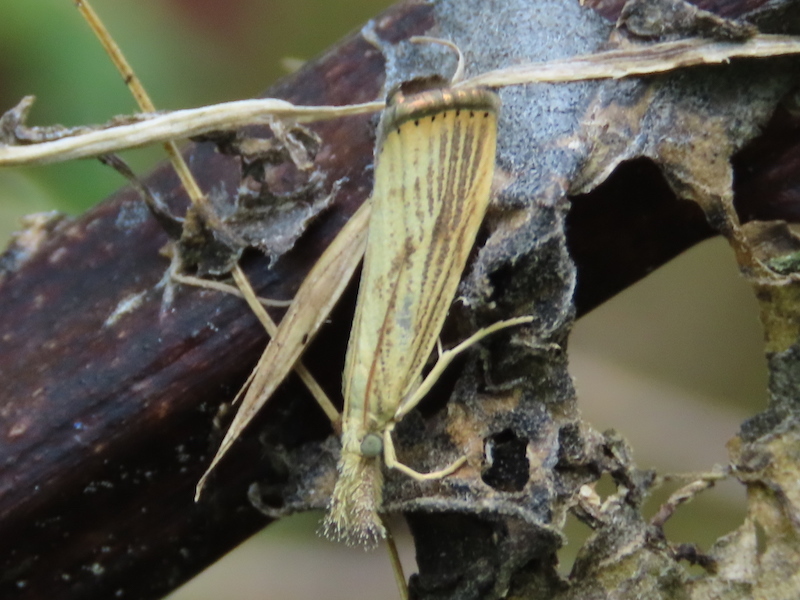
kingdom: Animalia
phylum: Arthropoda
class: Insecta
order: Lepidoptera
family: Crambidae
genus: Agriphila
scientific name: Agriphila ruricolellus
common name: Lesser vagabond sod webworm
